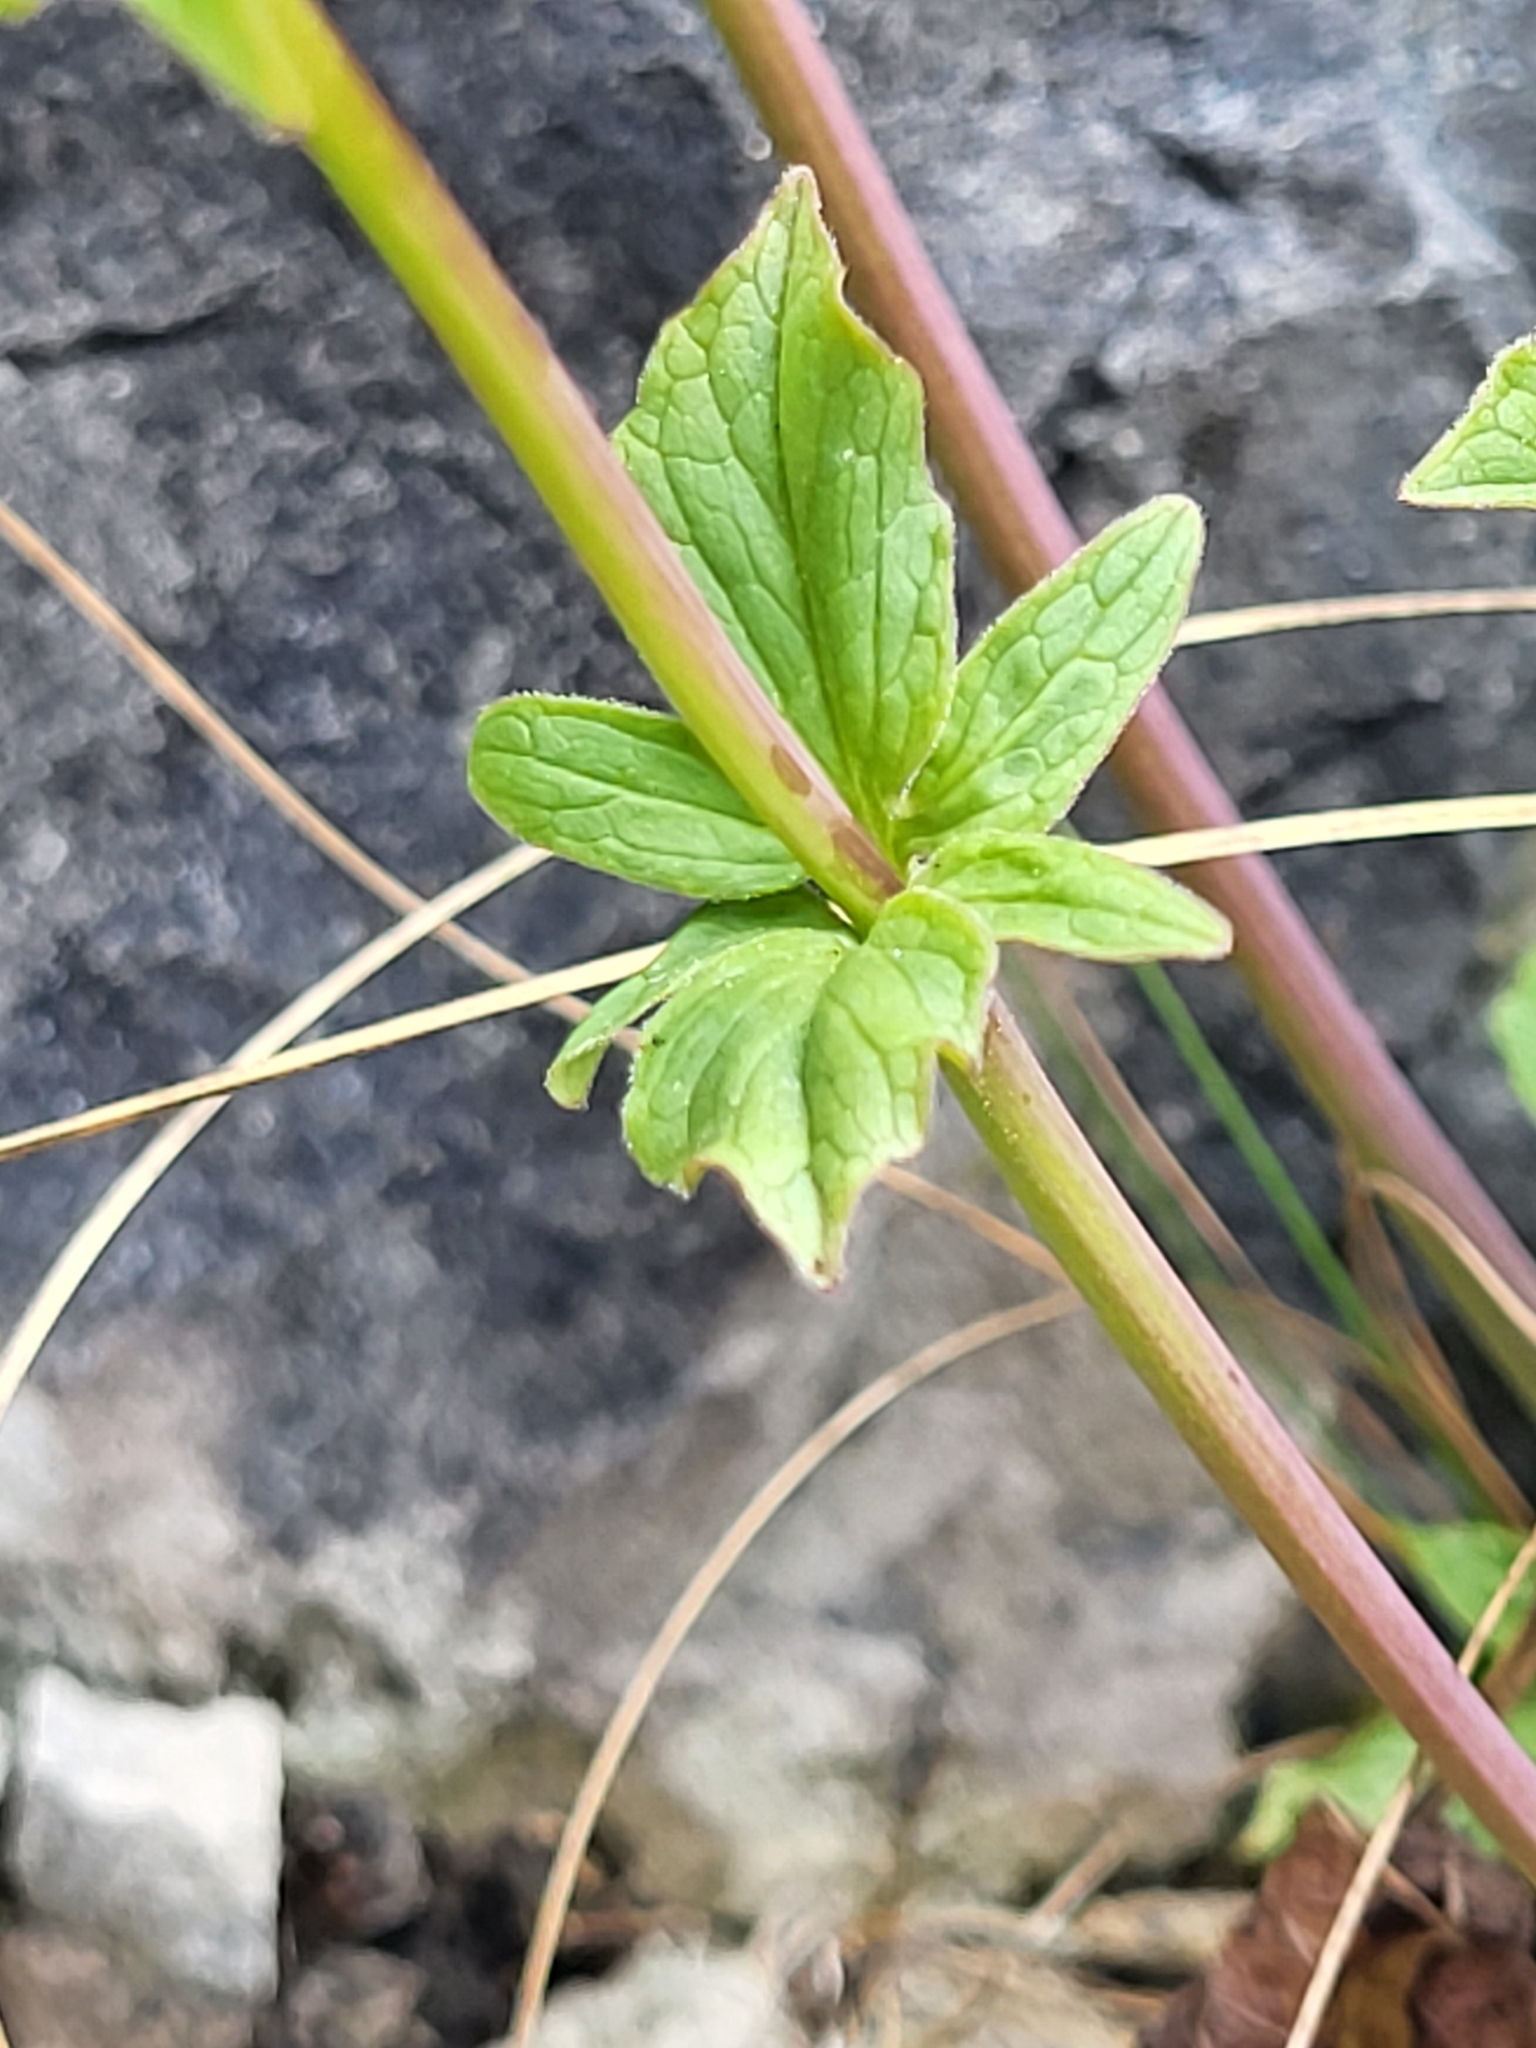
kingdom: Plantae
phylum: Tracheophyta
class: Magnoliopsida
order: Dipsacales
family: Caprifoliaceae
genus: Valeriana
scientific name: Valeriana tripteris
